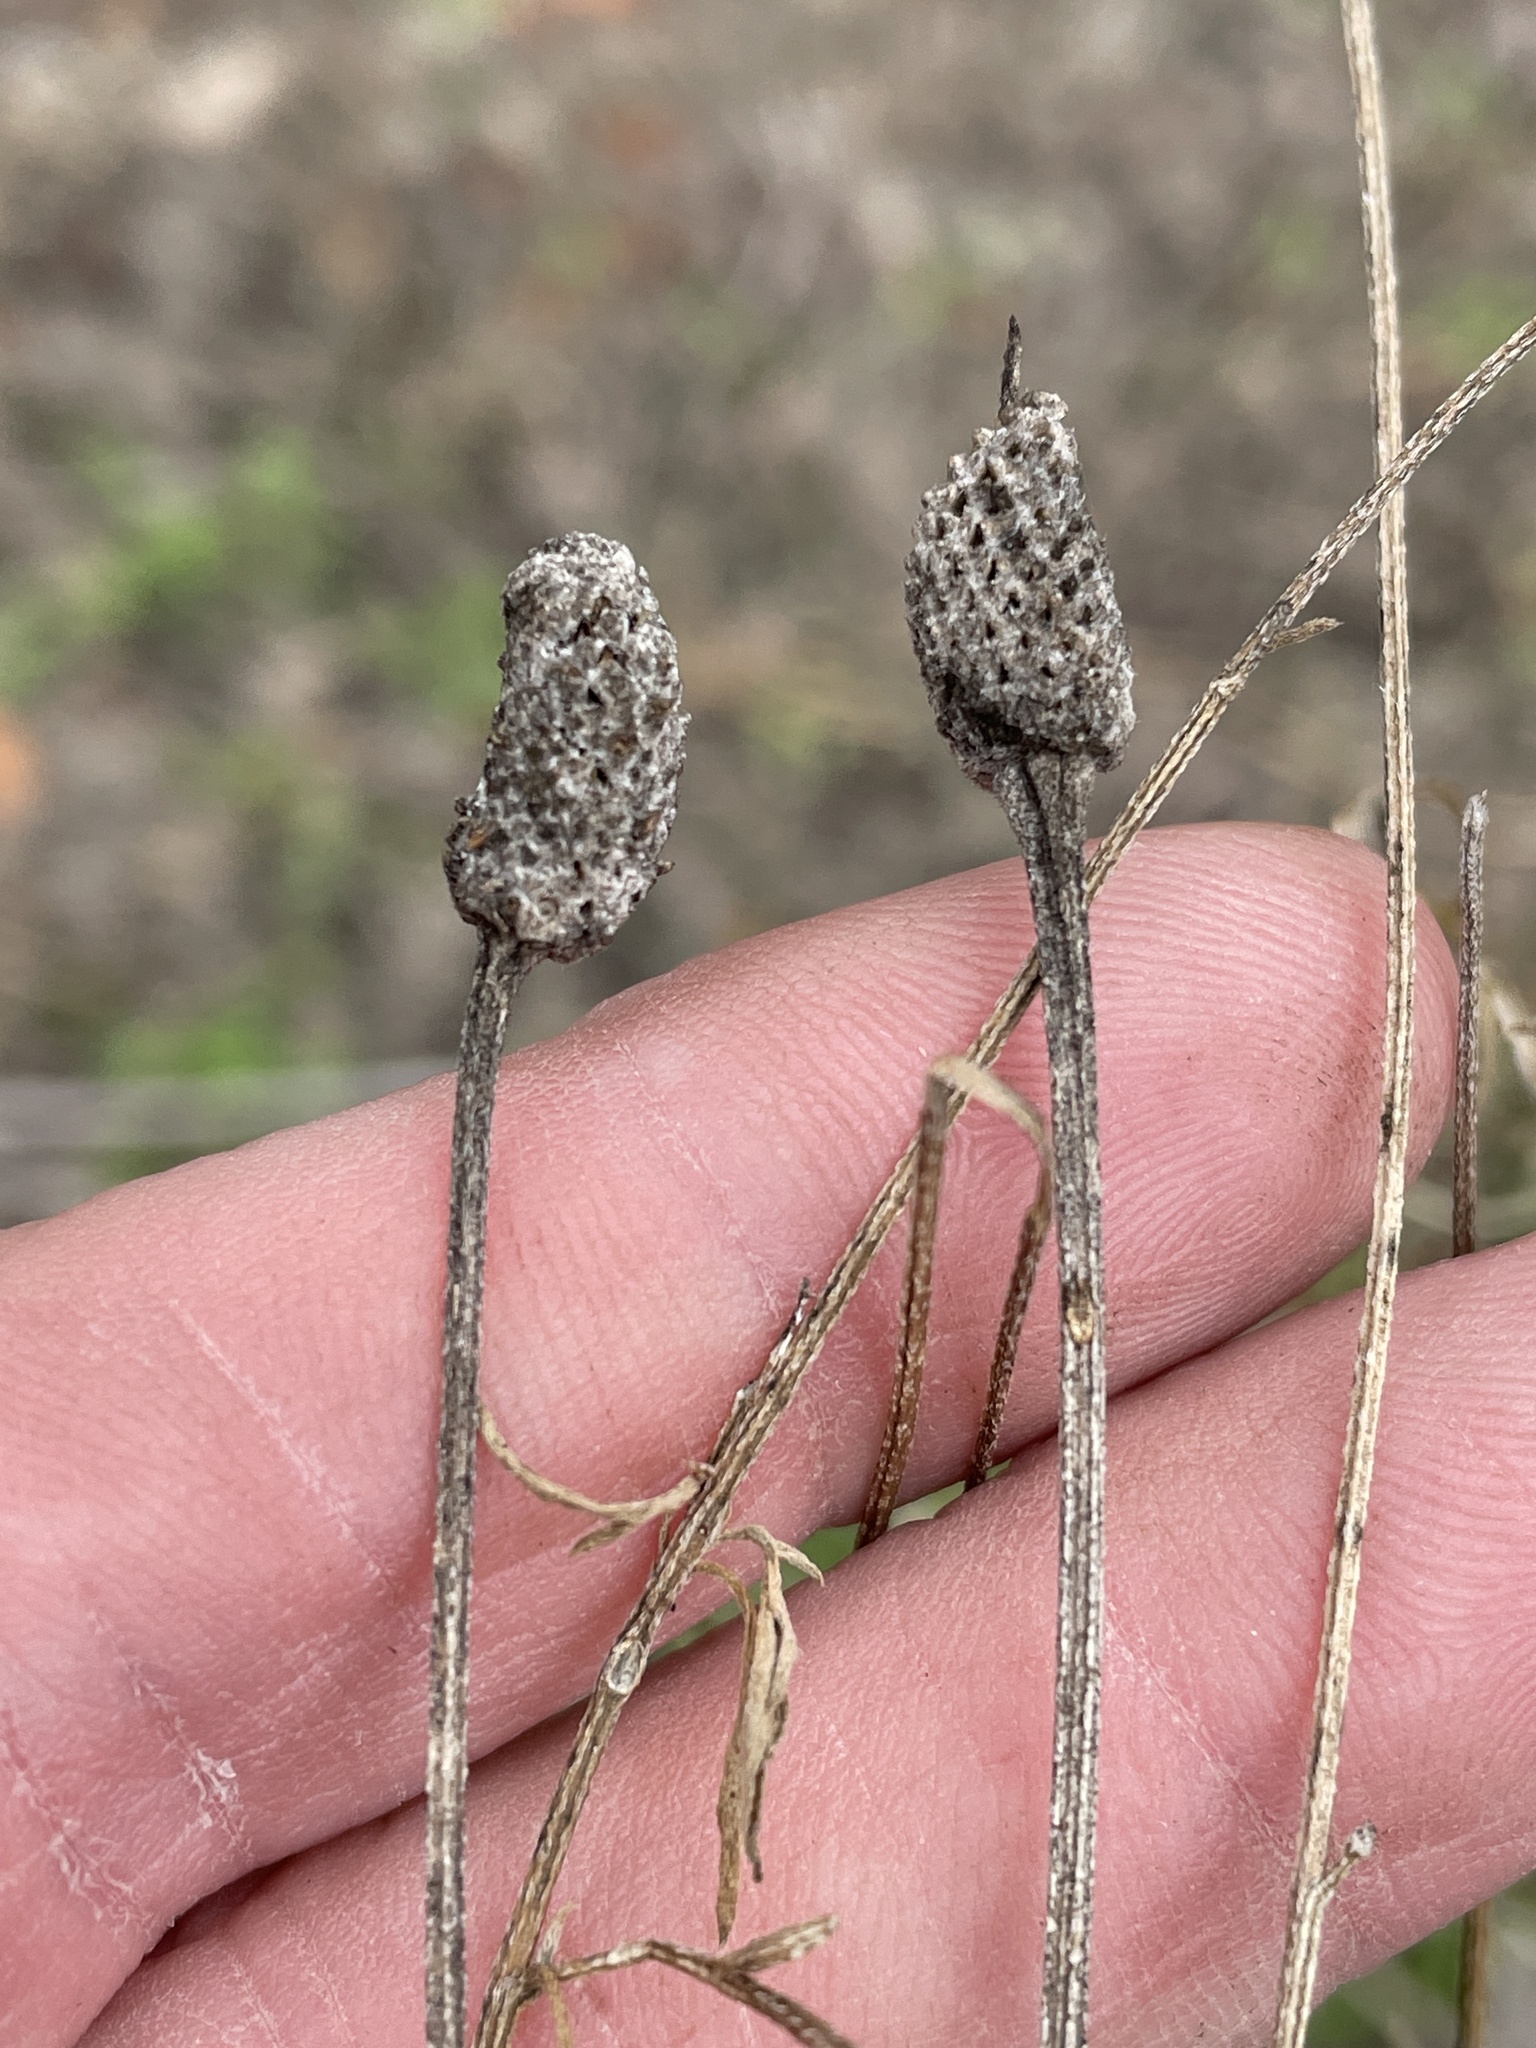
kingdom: Plantae
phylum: Tracheophyta
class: Magnoliopsida
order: Asterales
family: Asteraceae
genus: Ratibida
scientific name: Ratibida columnifera
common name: Prairie coneflower
